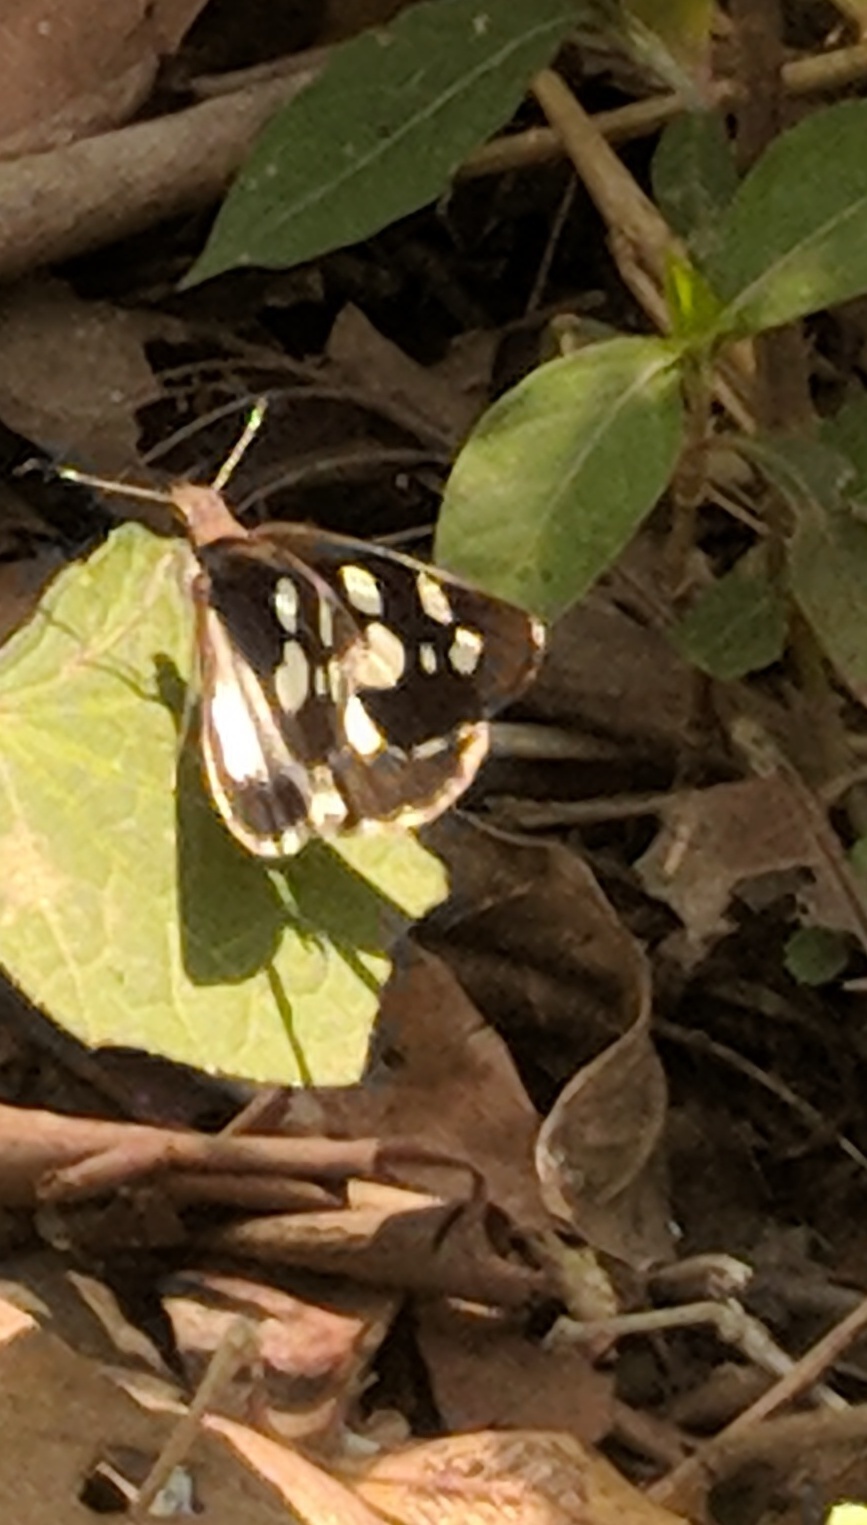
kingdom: Animalia
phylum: Arthropoda
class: Insecta
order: Lepidoptera
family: Hesperiidae
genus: Udaspes
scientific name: Udaspes folus
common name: Grass demon
